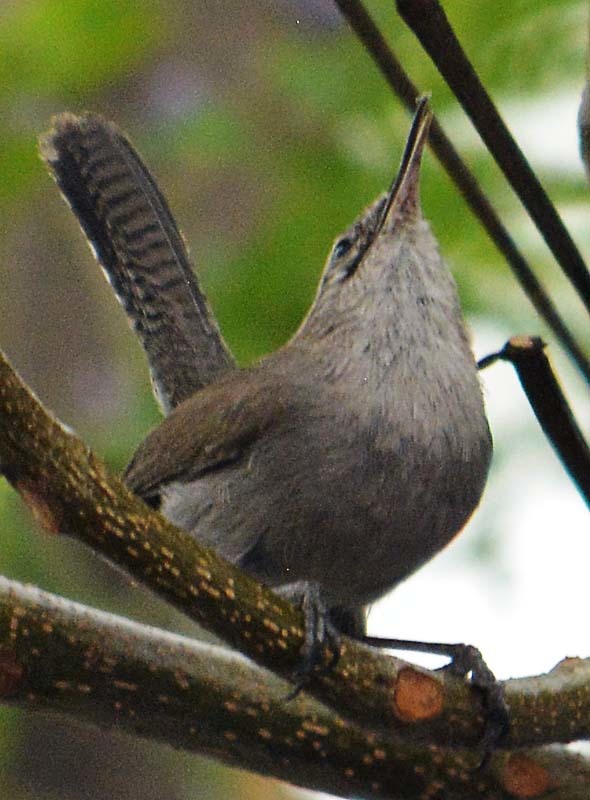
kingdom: Animalia
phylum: Chordata
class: Aves
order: Passeriformes
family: Troglodytidae
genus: Thryomanes
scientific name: Thryomanes bewickii
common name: Bewick's wren
